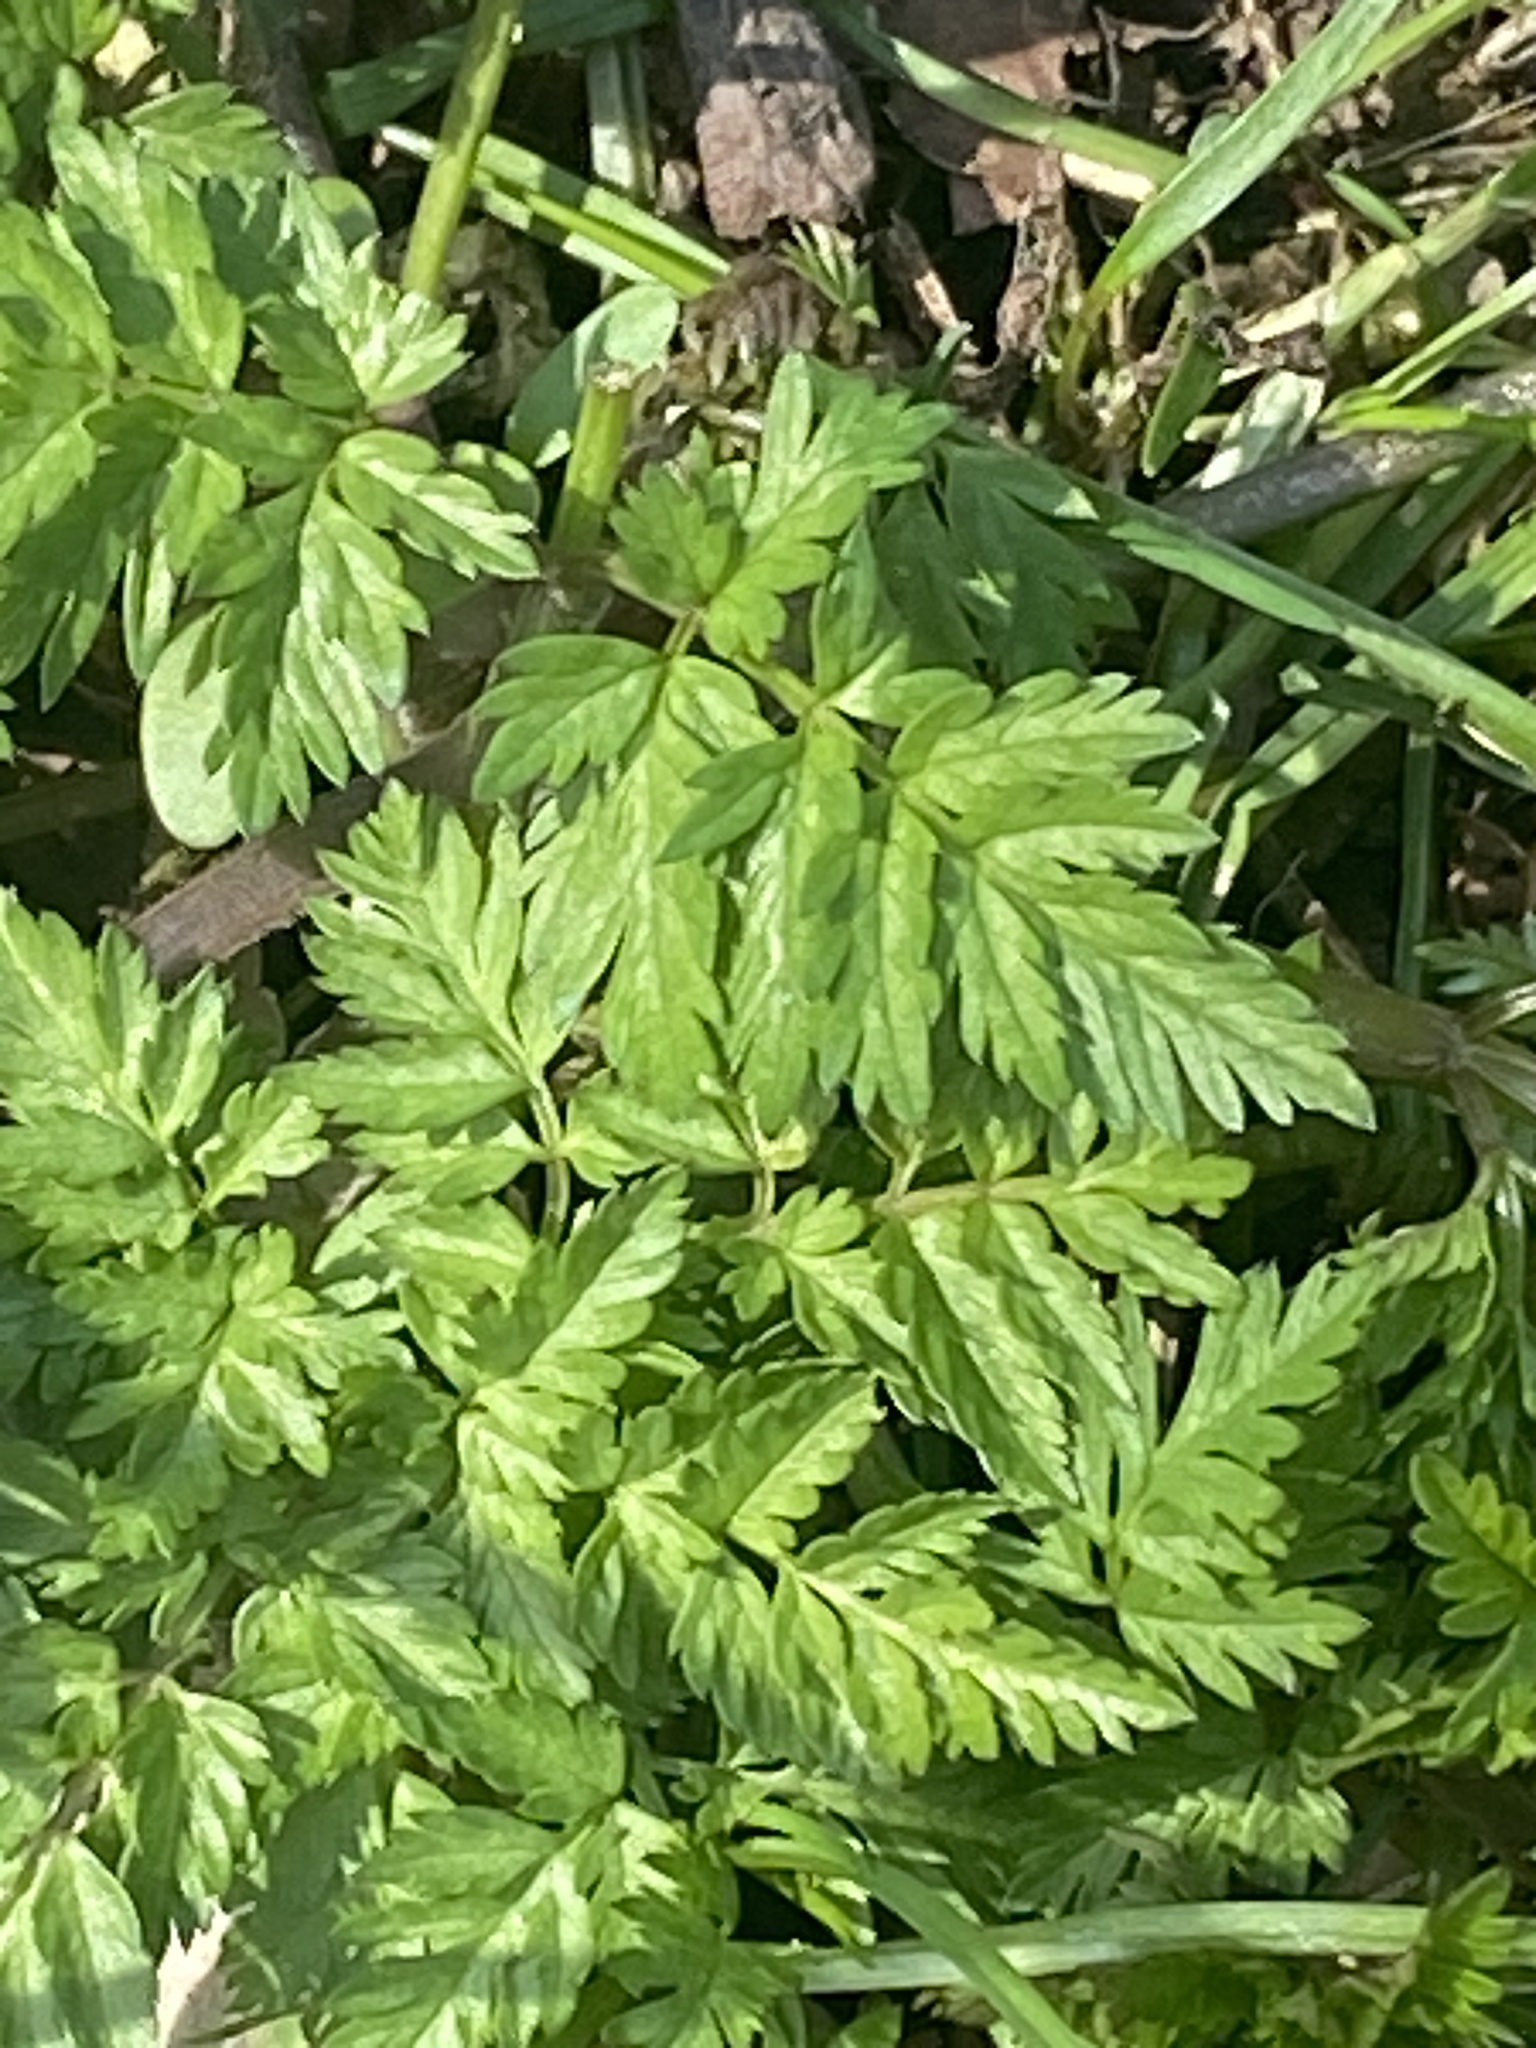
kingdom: Plantae
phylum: Tracheophyta
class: Magnoliopsida
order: Apiales
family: Apiaceae
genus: Anthriscus
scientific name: Anthriscus sylvestris
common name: Cow parsley
